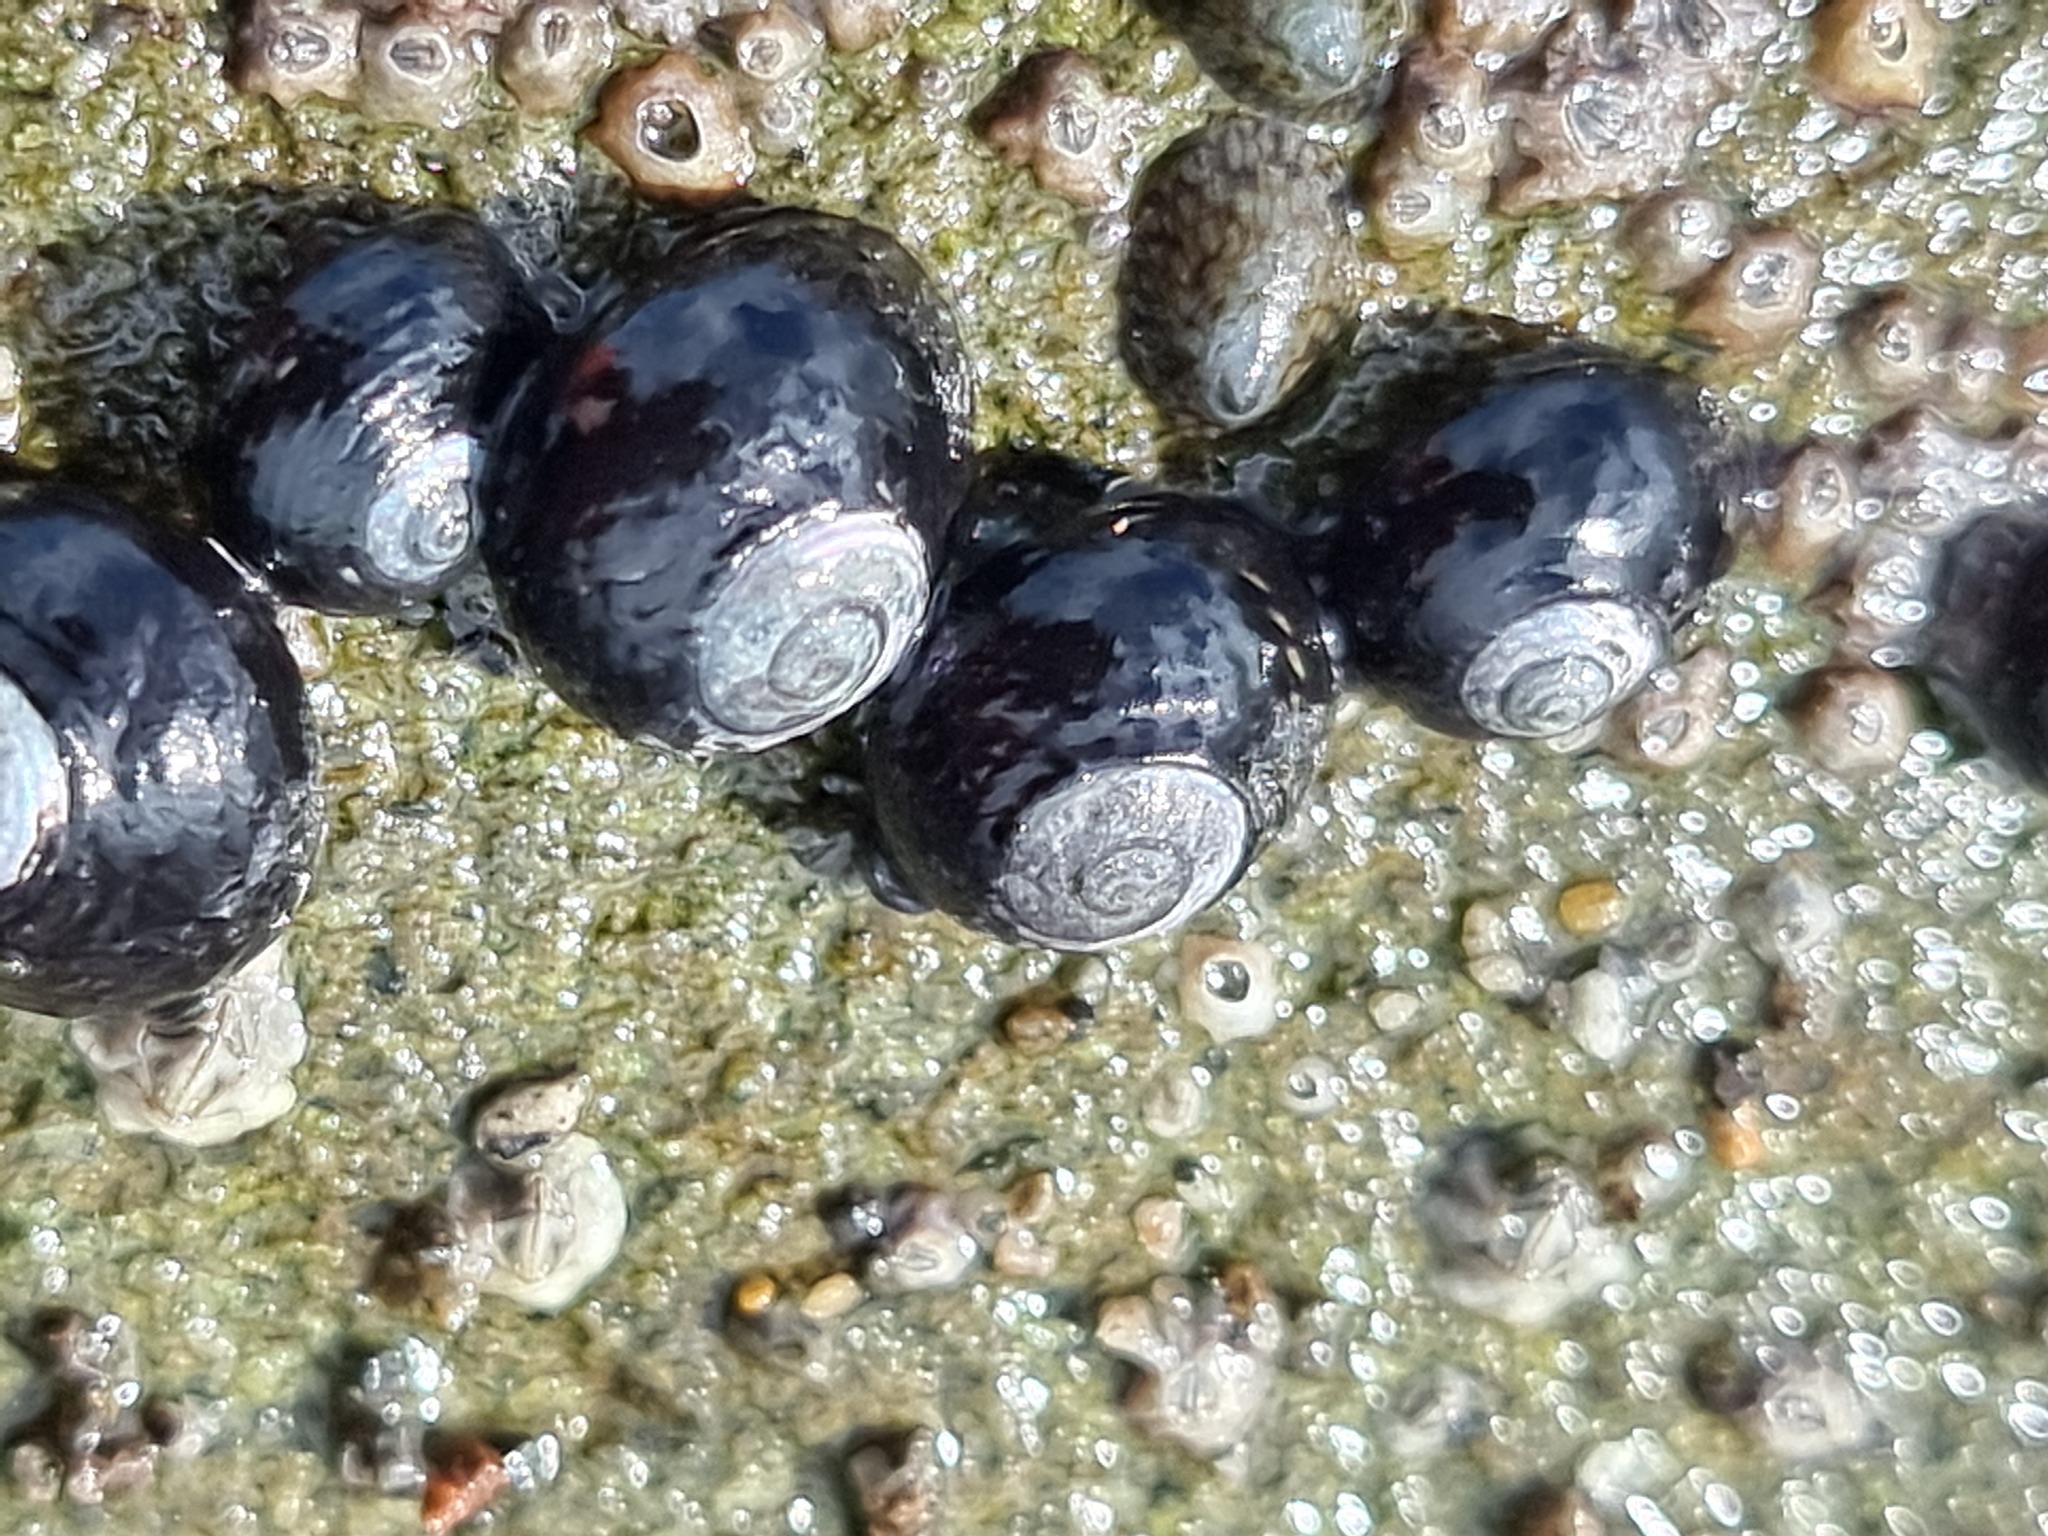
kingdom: Animalia
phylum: Mollusca
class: Gastropoda
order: Trochida
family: Trochidae
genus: Diloma
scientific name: Diloma zelandicum
